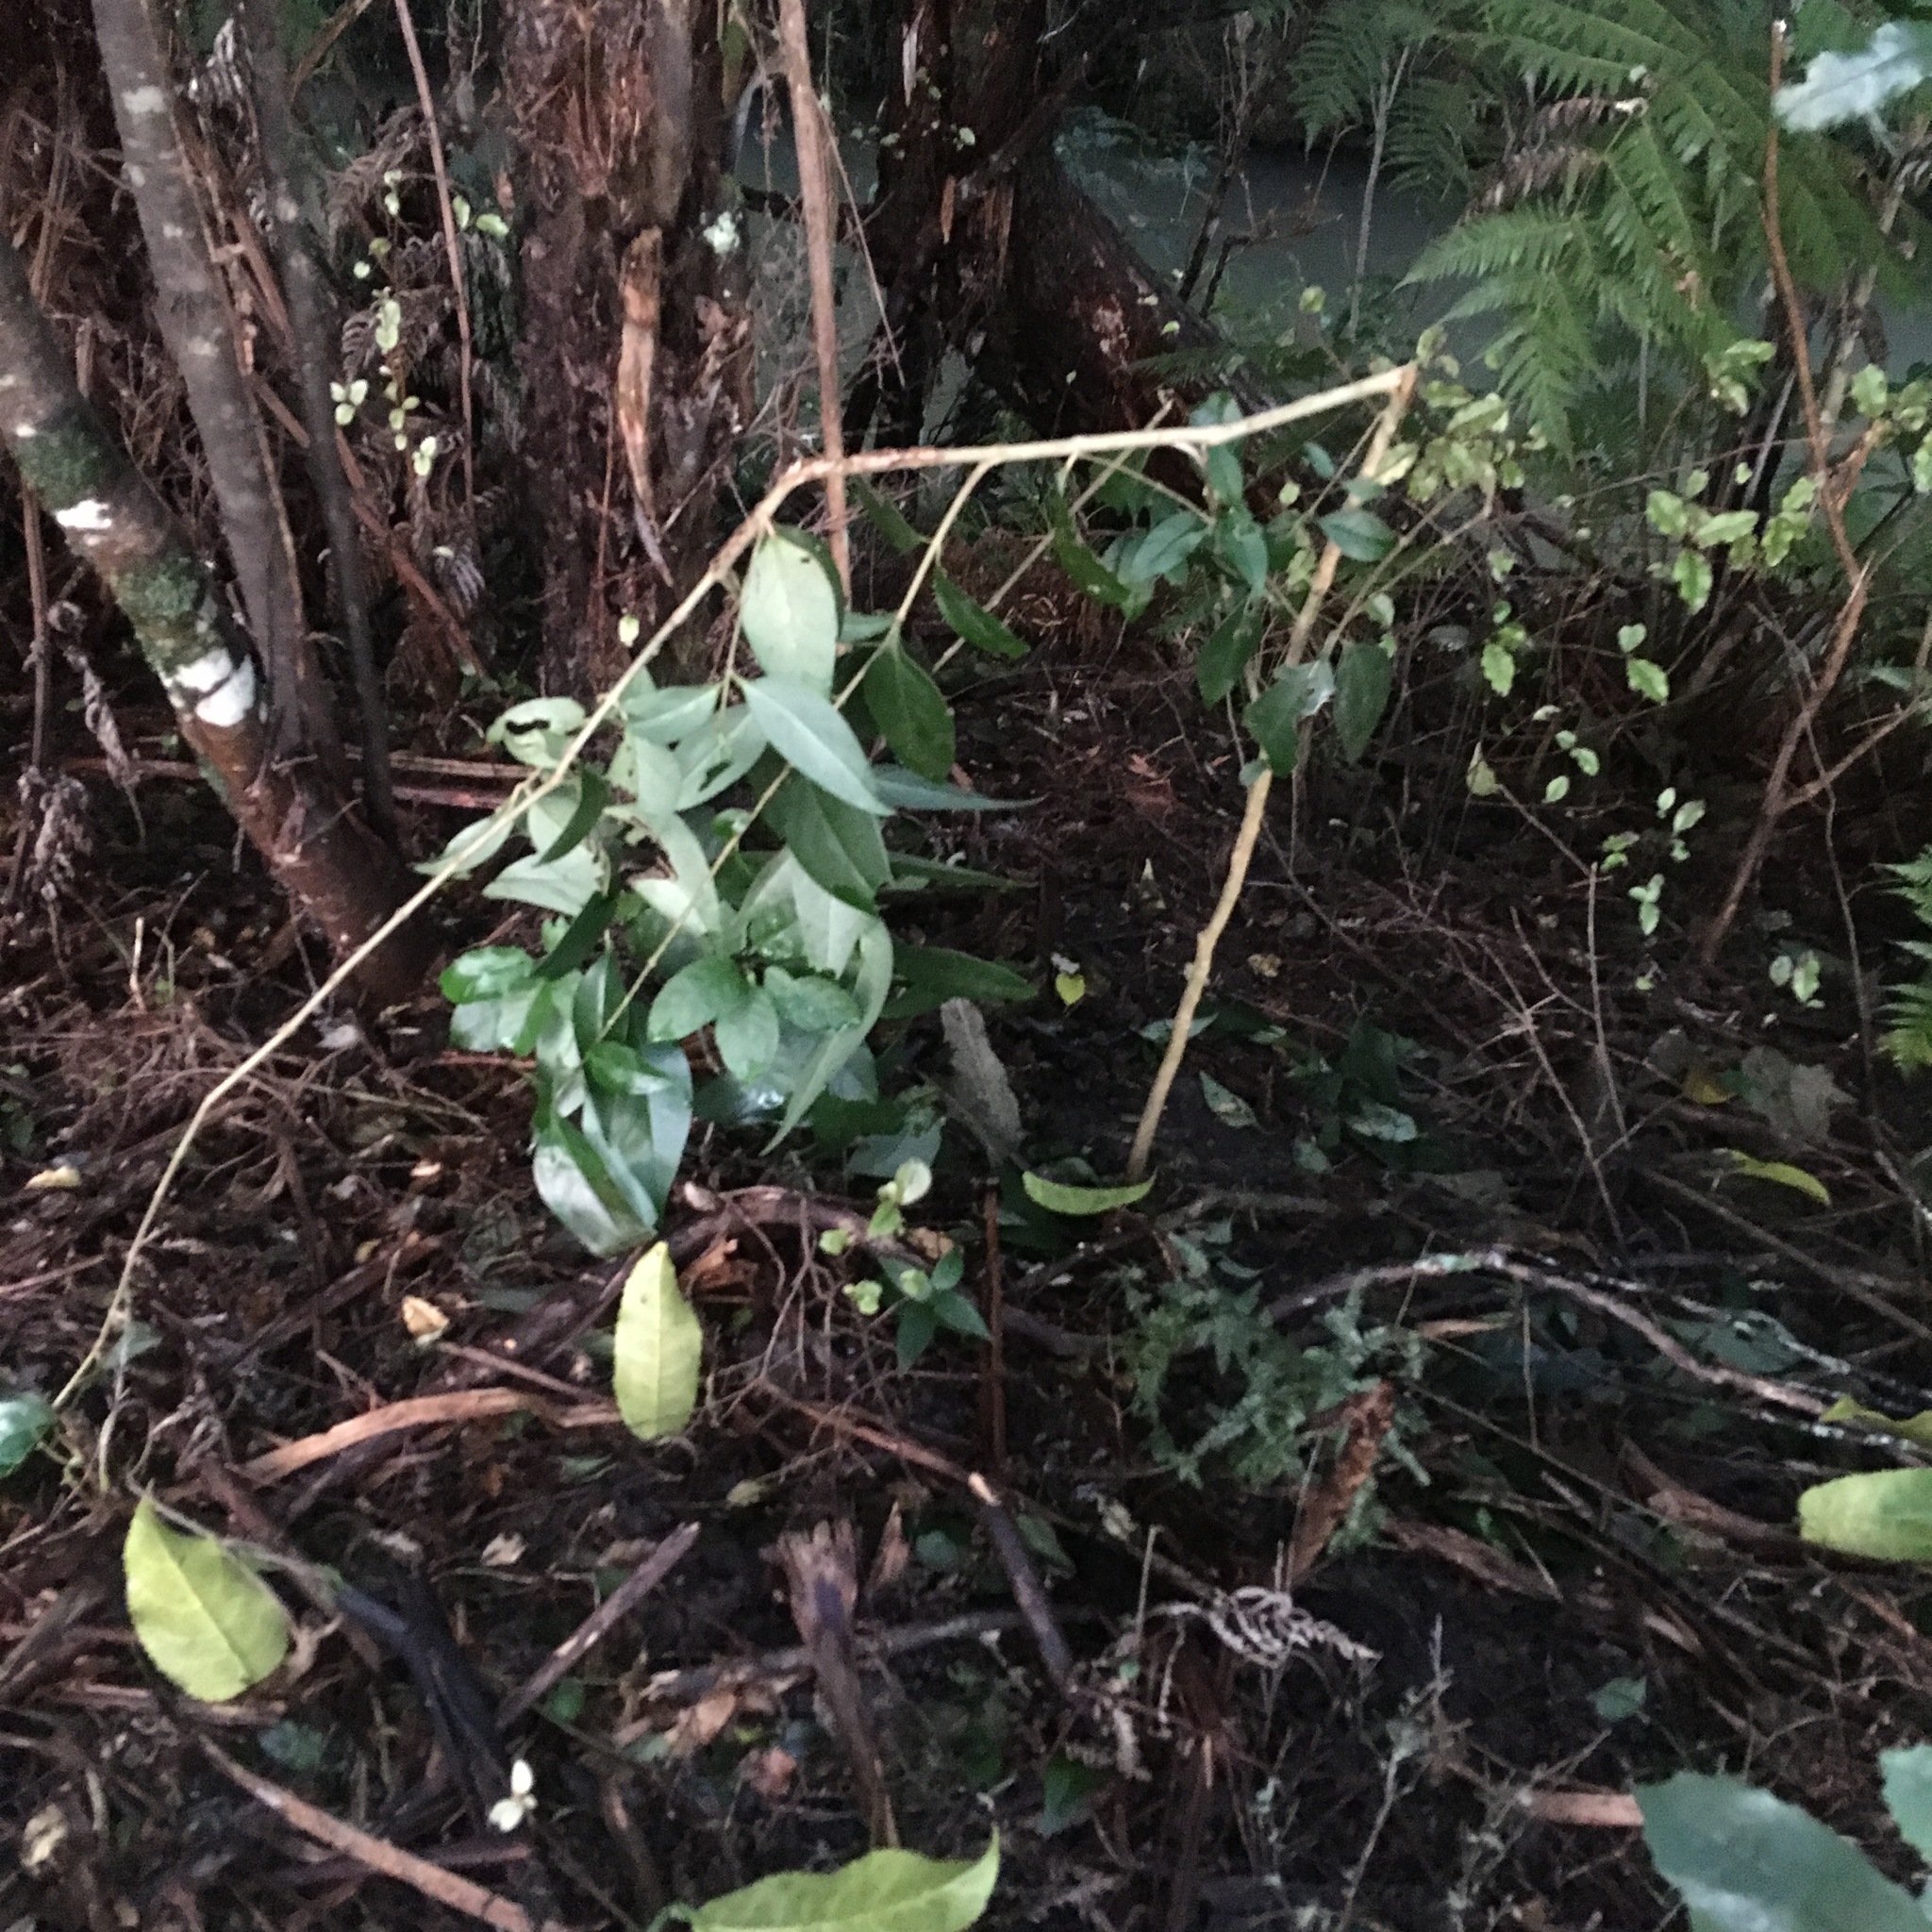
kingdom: Plantae
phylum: Tracheophyta
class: Magnoliopsida
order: Lamiales
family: Oleaceae
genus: Ligustrum
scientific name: Ligustrum lucidum
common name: Glossy privet
